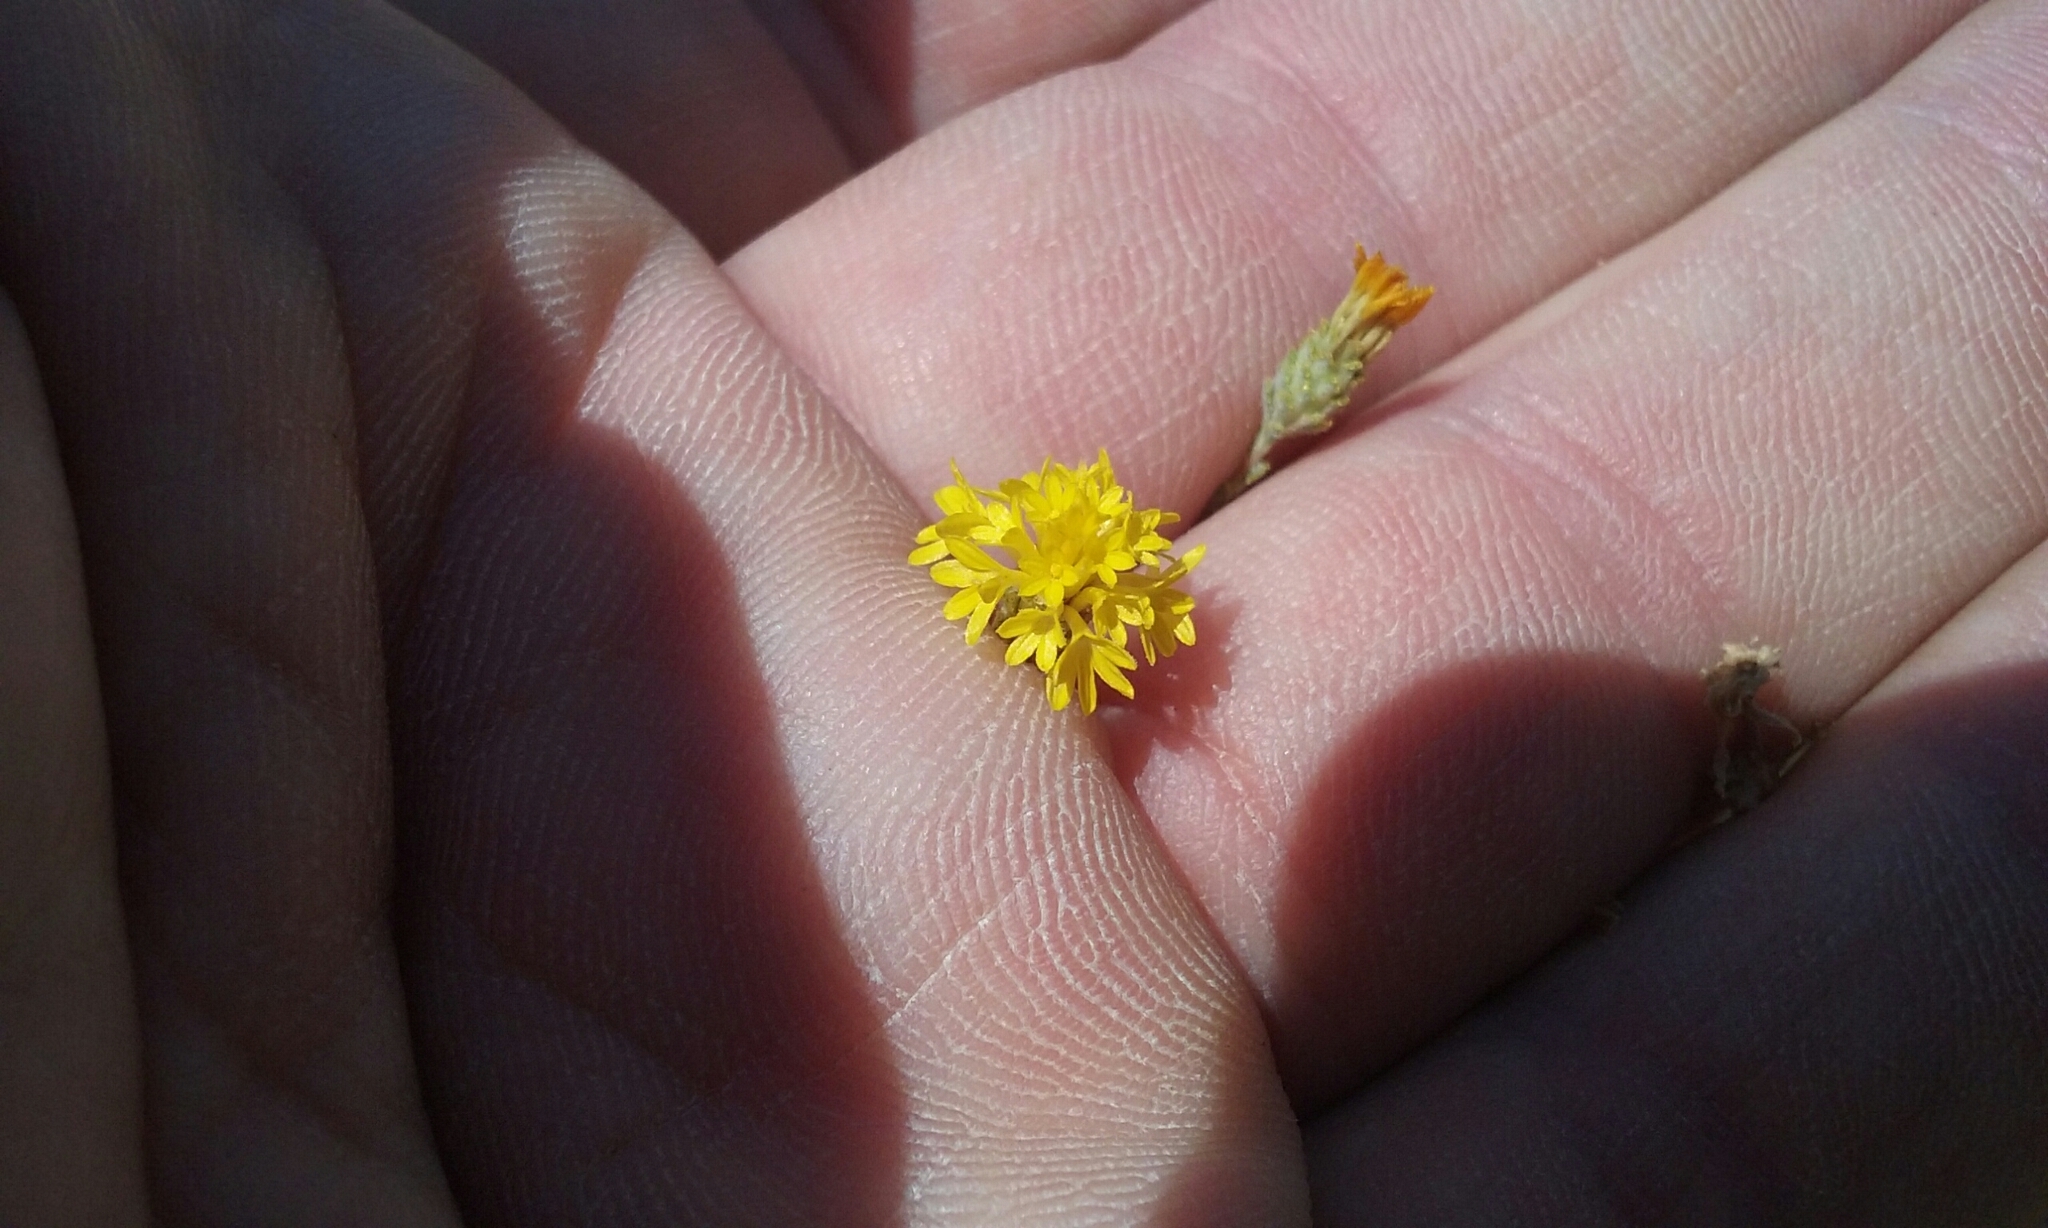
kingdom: Plantae
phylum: Tracheophyta
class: Magnoliopsida
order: Asterales
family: Asteraceae
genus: Lessingia
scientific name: Lessingia glandulifera
